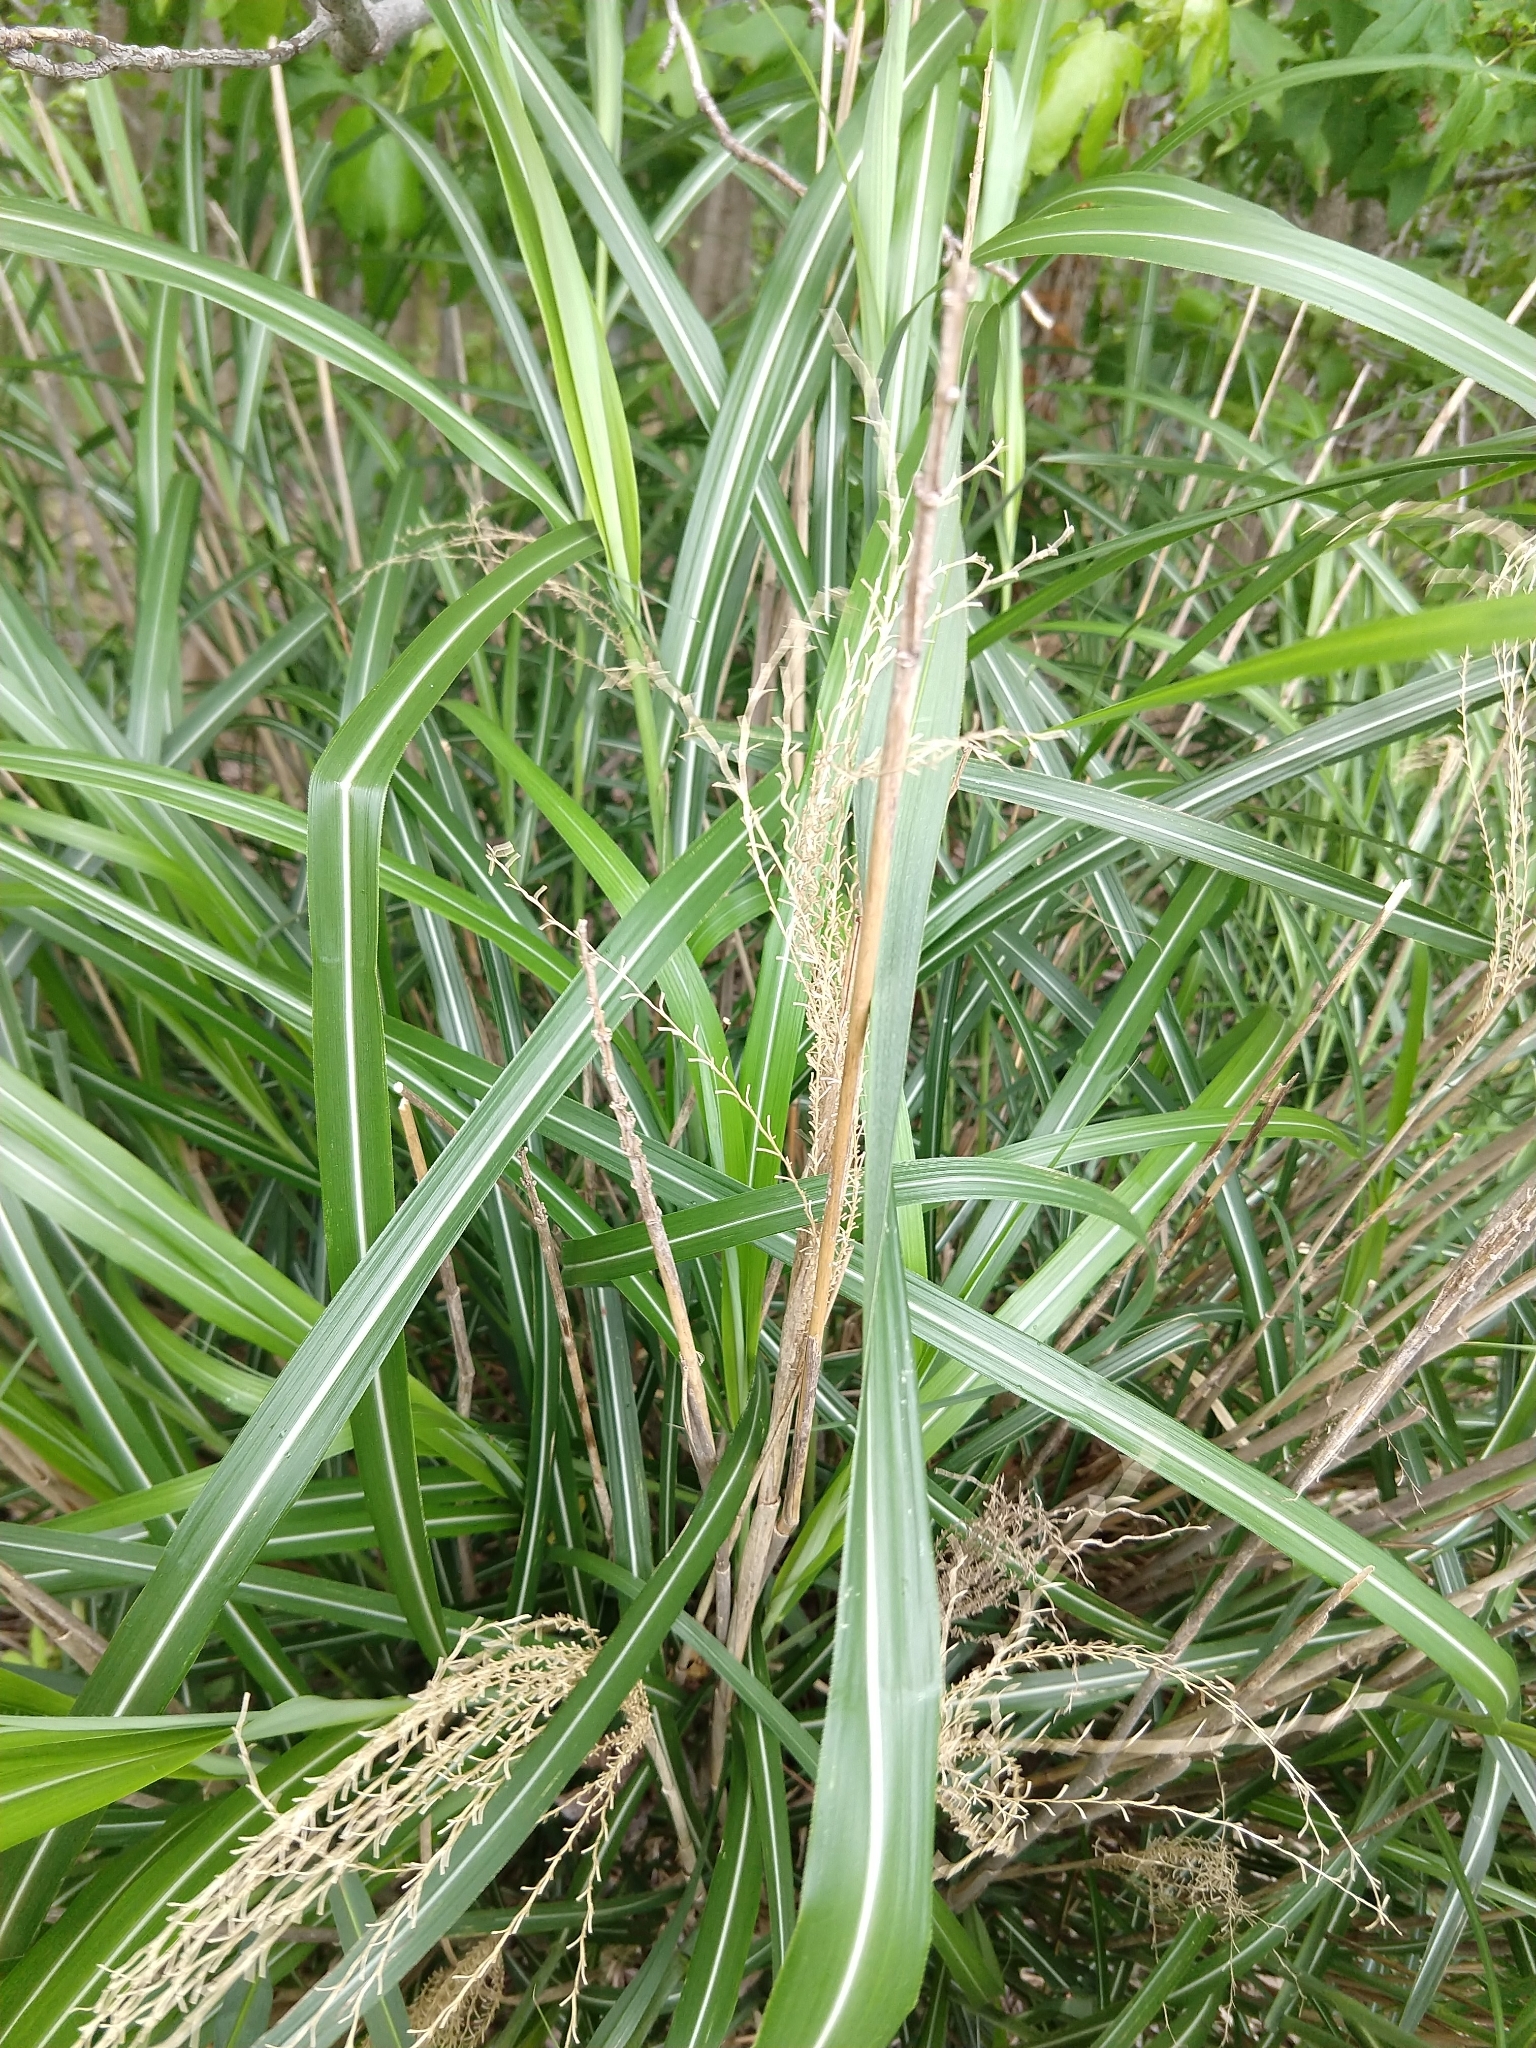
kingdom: Plantae
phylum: Tracheophyta
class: Liliopsida
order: Poales
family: Poaceae
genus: Miscanthus
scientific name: Miscanthus sinensis
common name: Chinese silvergrass
